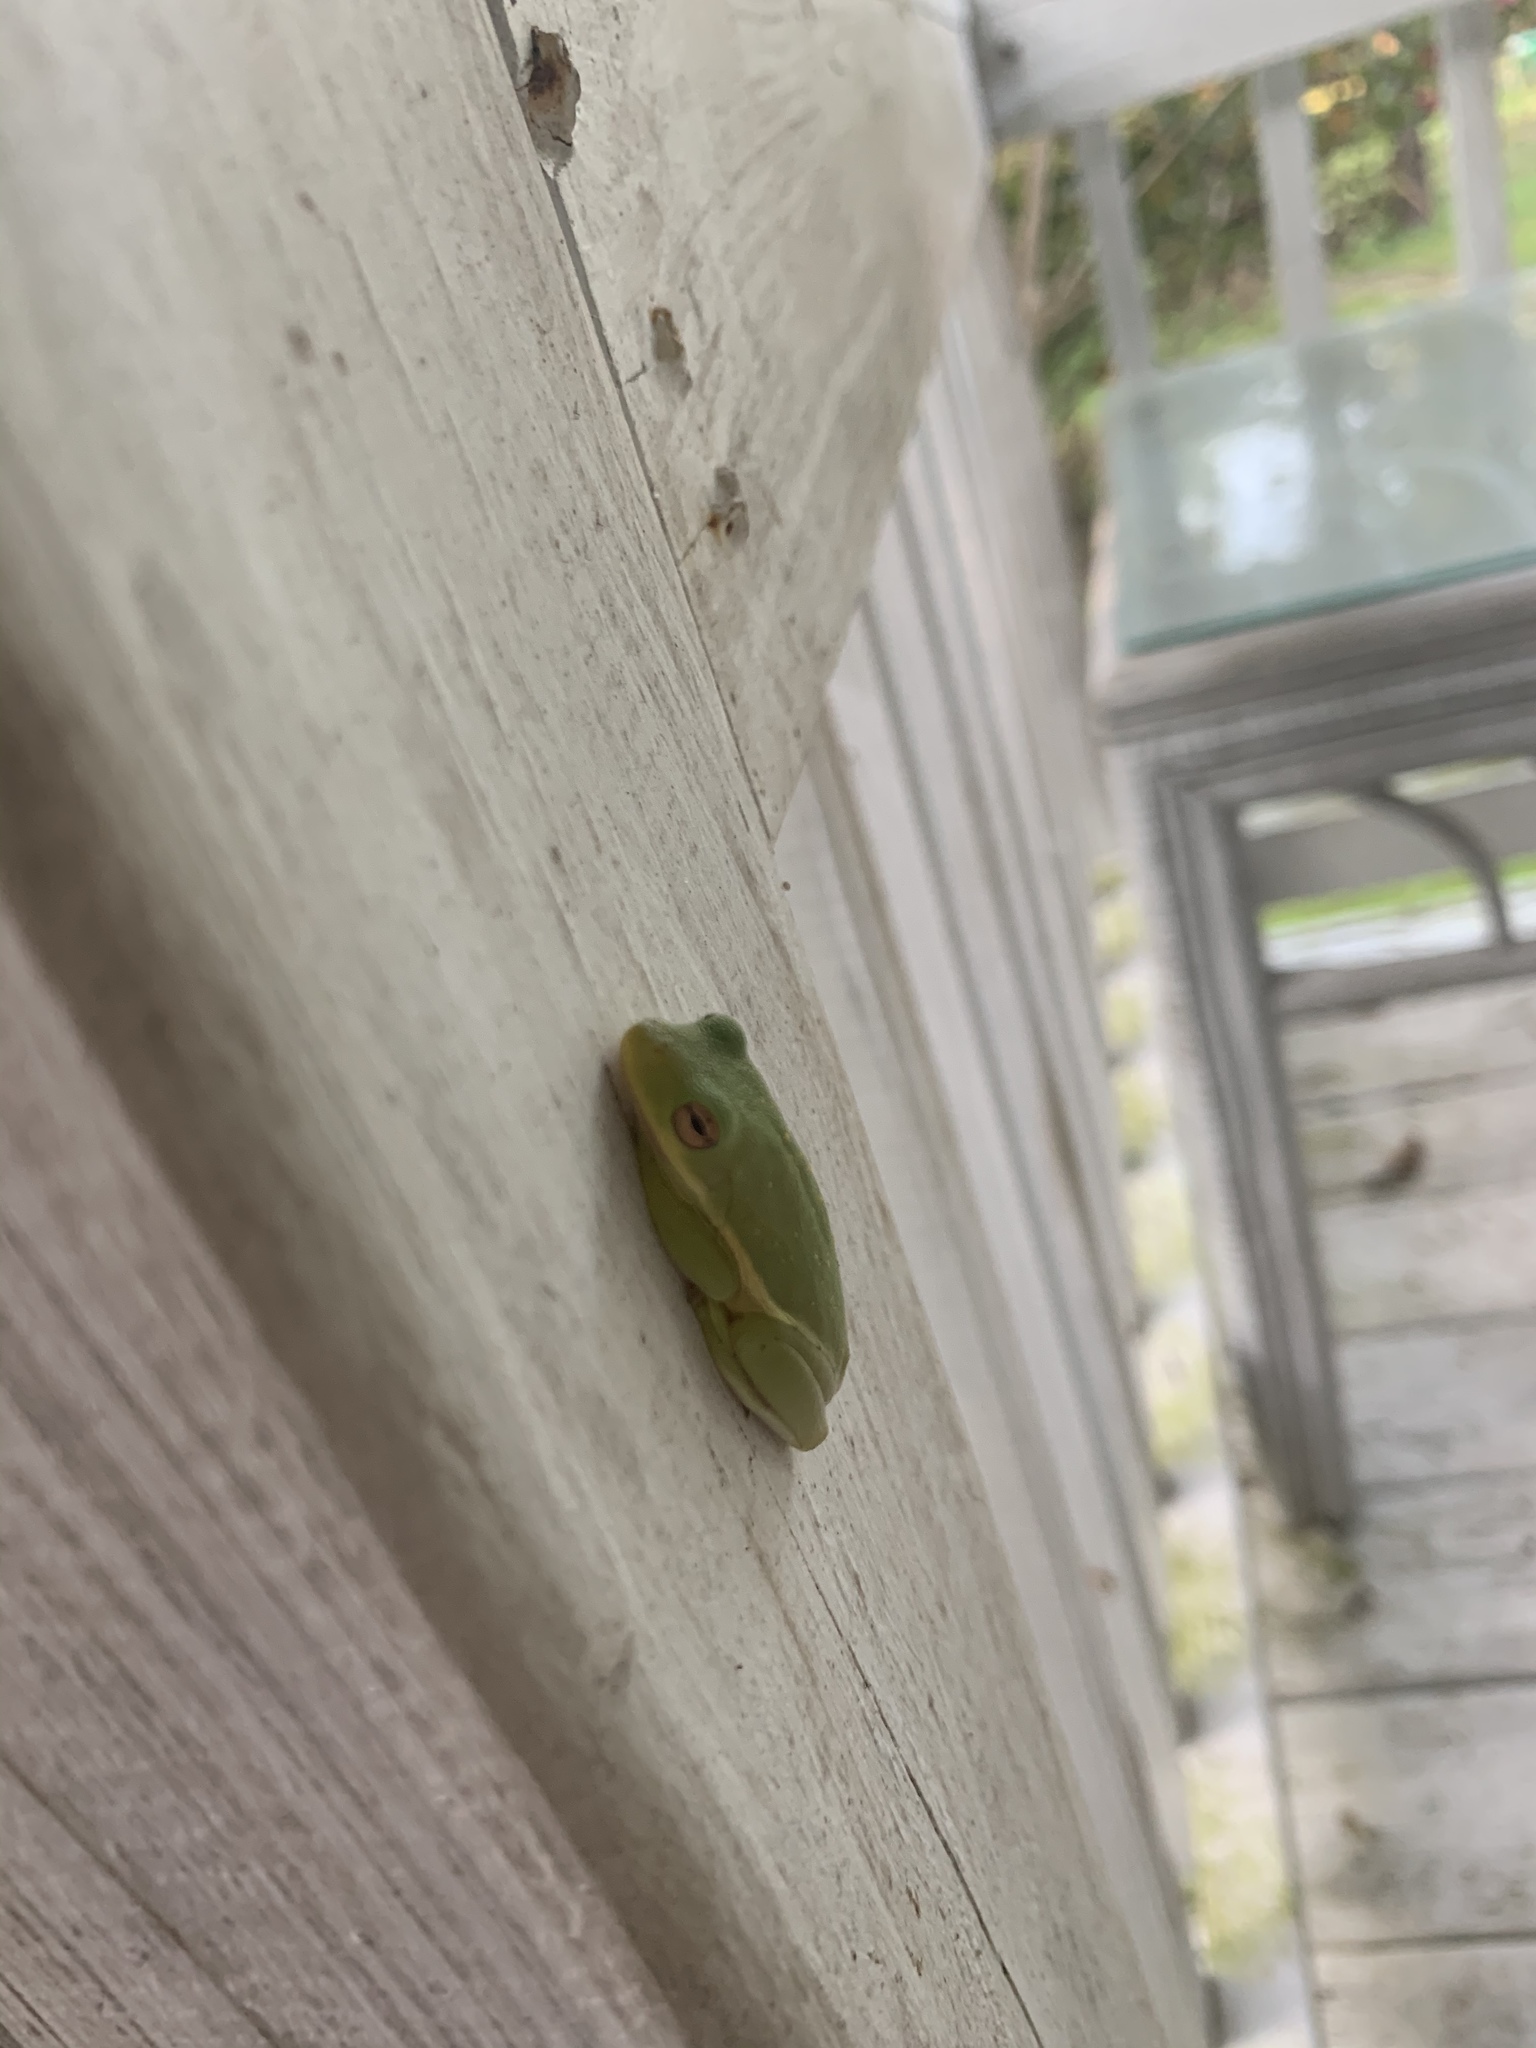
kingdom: Animalia
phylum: Chordata
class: Amphibia
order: Anura
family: Hylidae
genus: Dryophytes
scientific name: Dryophytes cinereus
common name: Green treefrog
